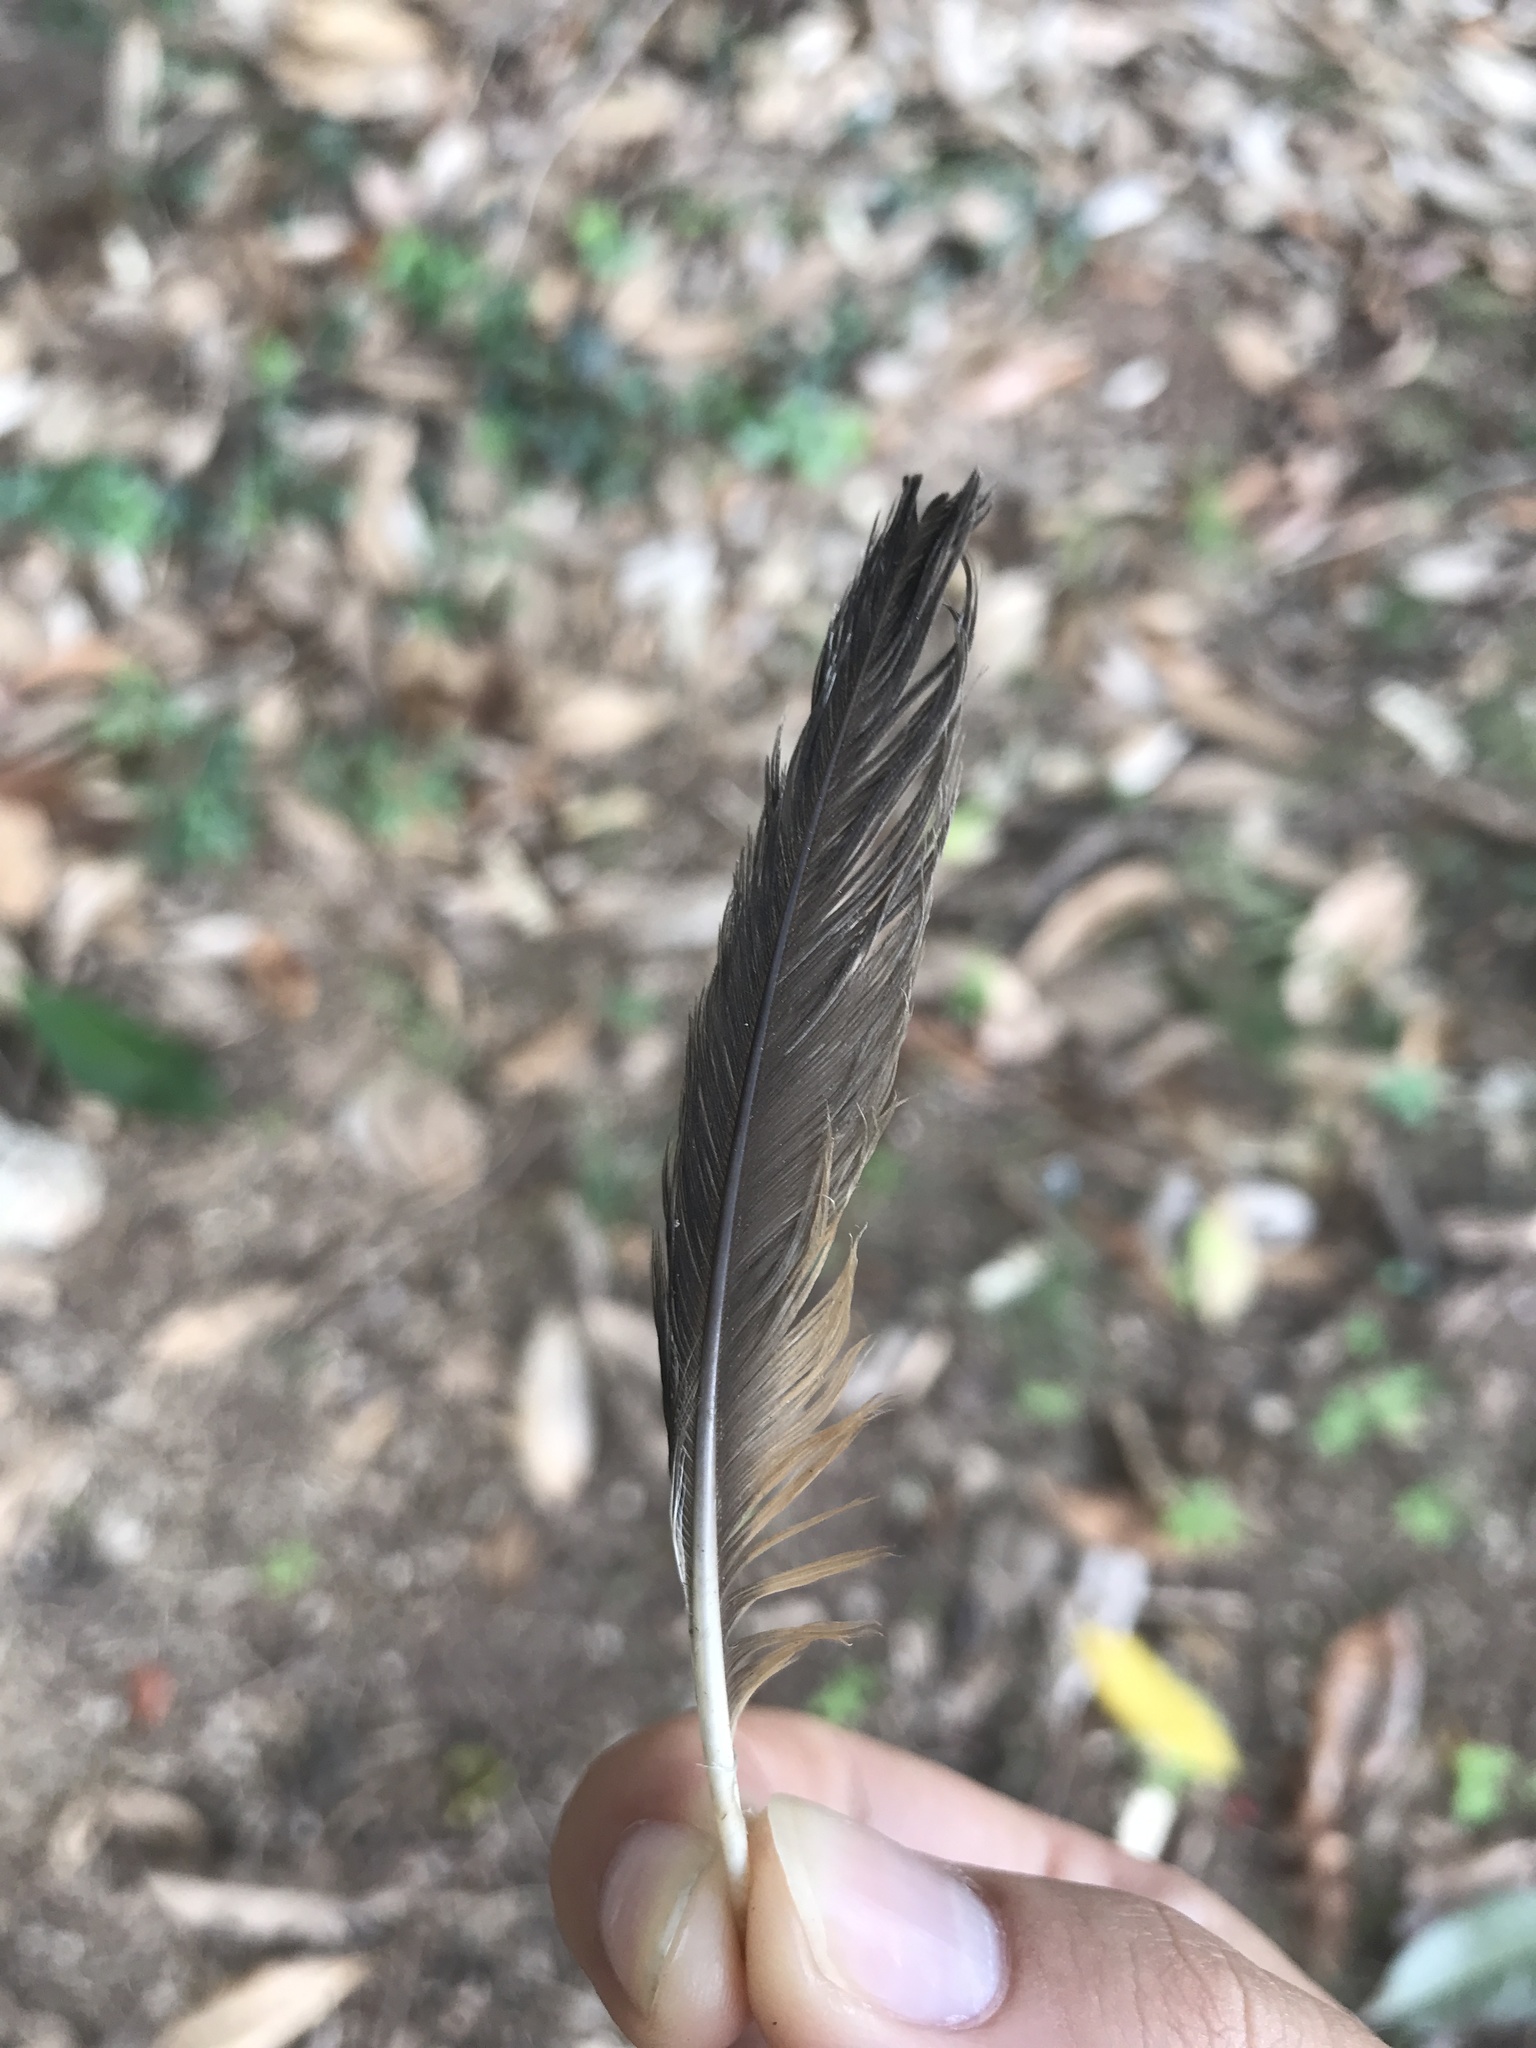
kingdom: Animalia
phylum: Chordata
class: Aves
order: Passeriformes
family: Turdidae
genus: Turdus
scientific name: Turdus migratorius
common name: American robin
